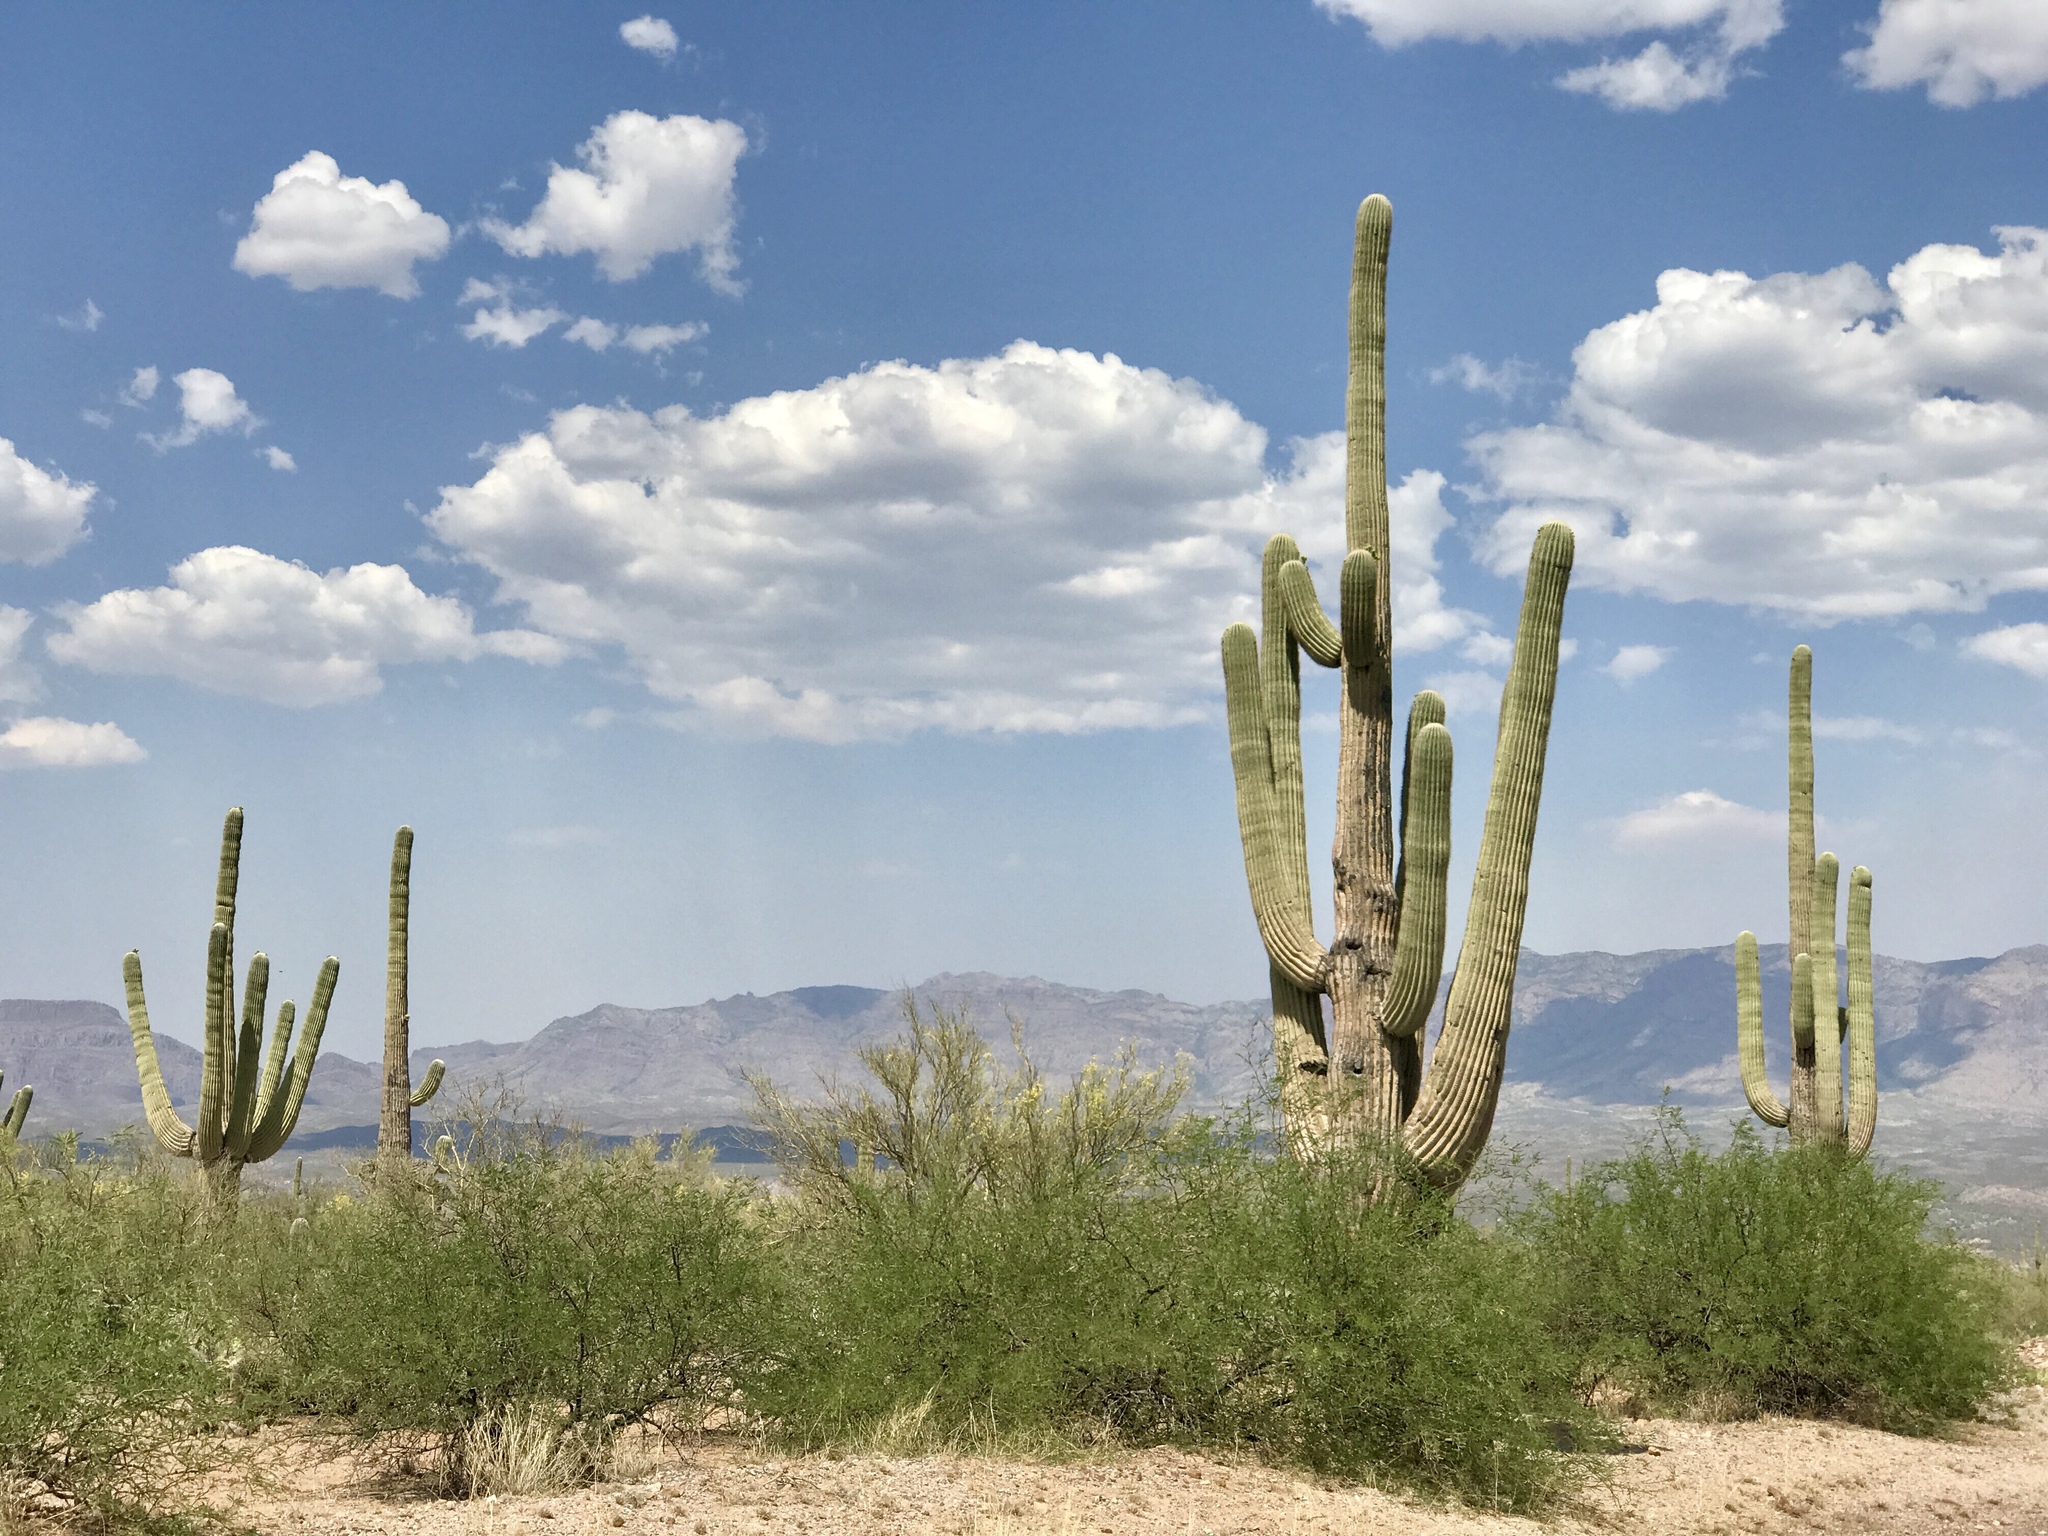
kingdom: Plantae
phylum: Tracheophyta
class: Magnoliopsida
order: Caryophyllales
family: Cactaceae
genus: Carnegiea
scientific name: Carnegiea gigantea
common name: Saguaro
